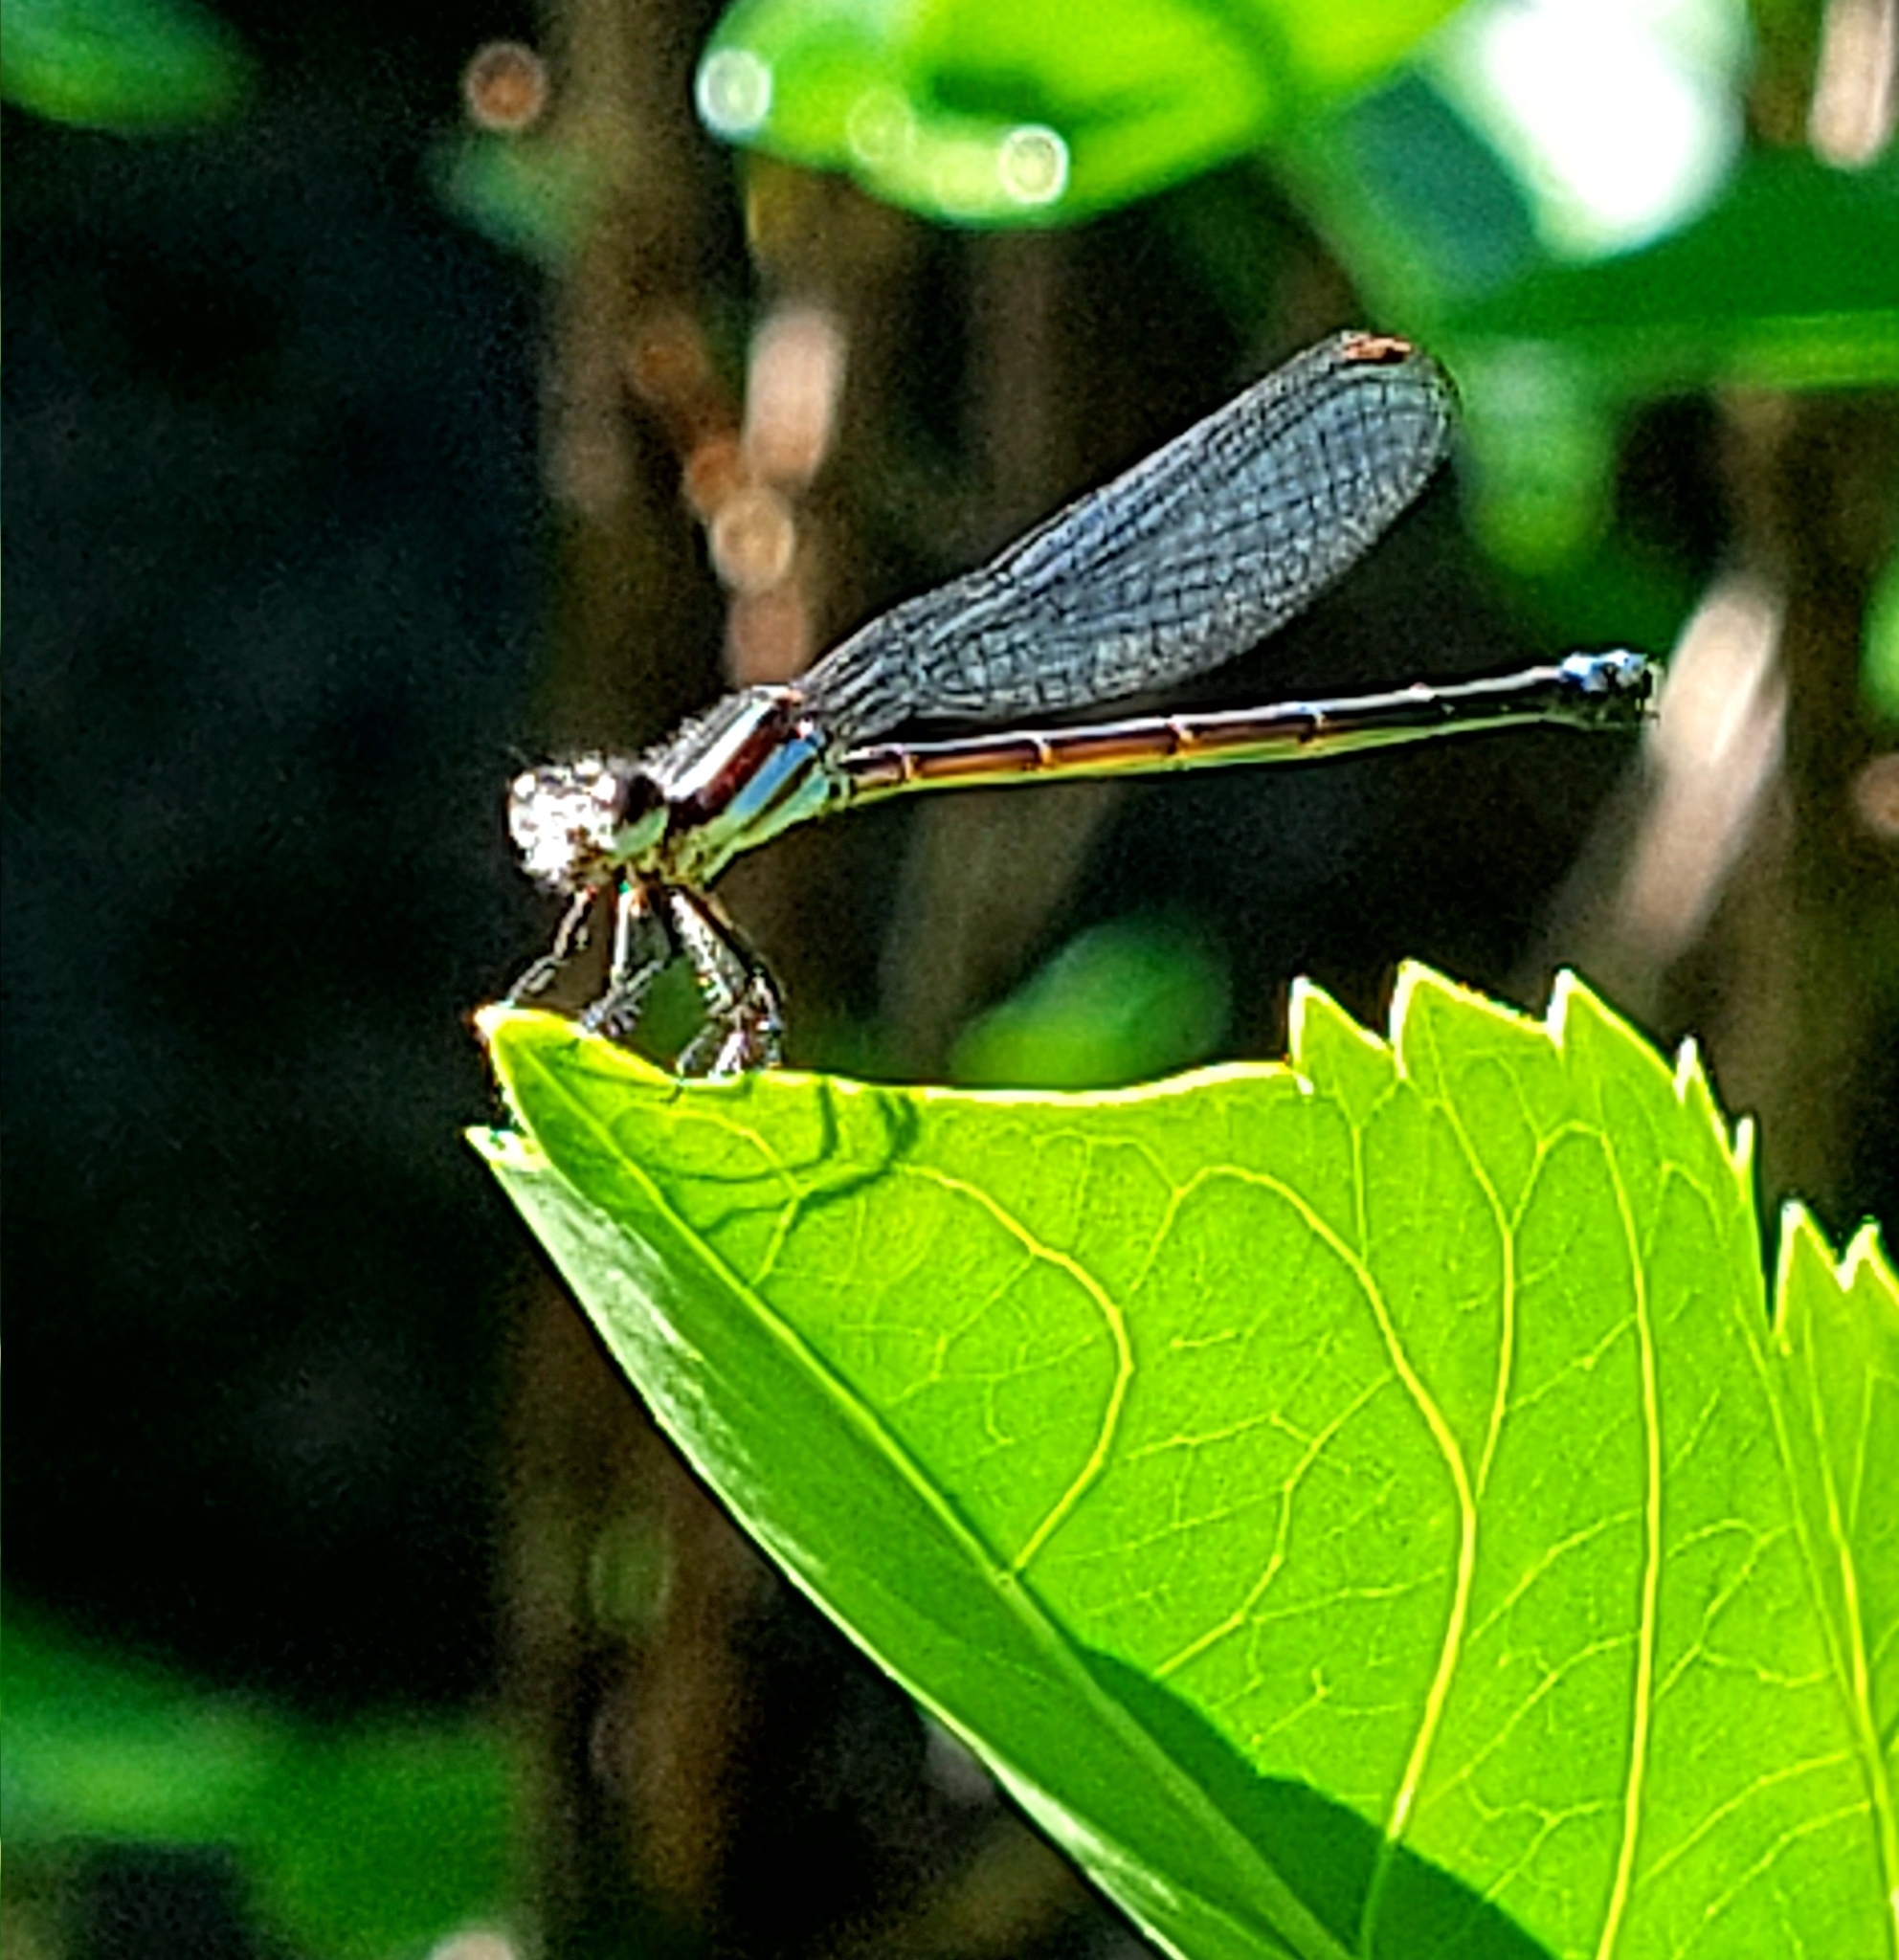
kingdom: Animalia
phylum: Arthropoda
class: Insecta
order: Odonata
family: Coenagrionidae
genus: Argia
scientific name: Argia oculata
